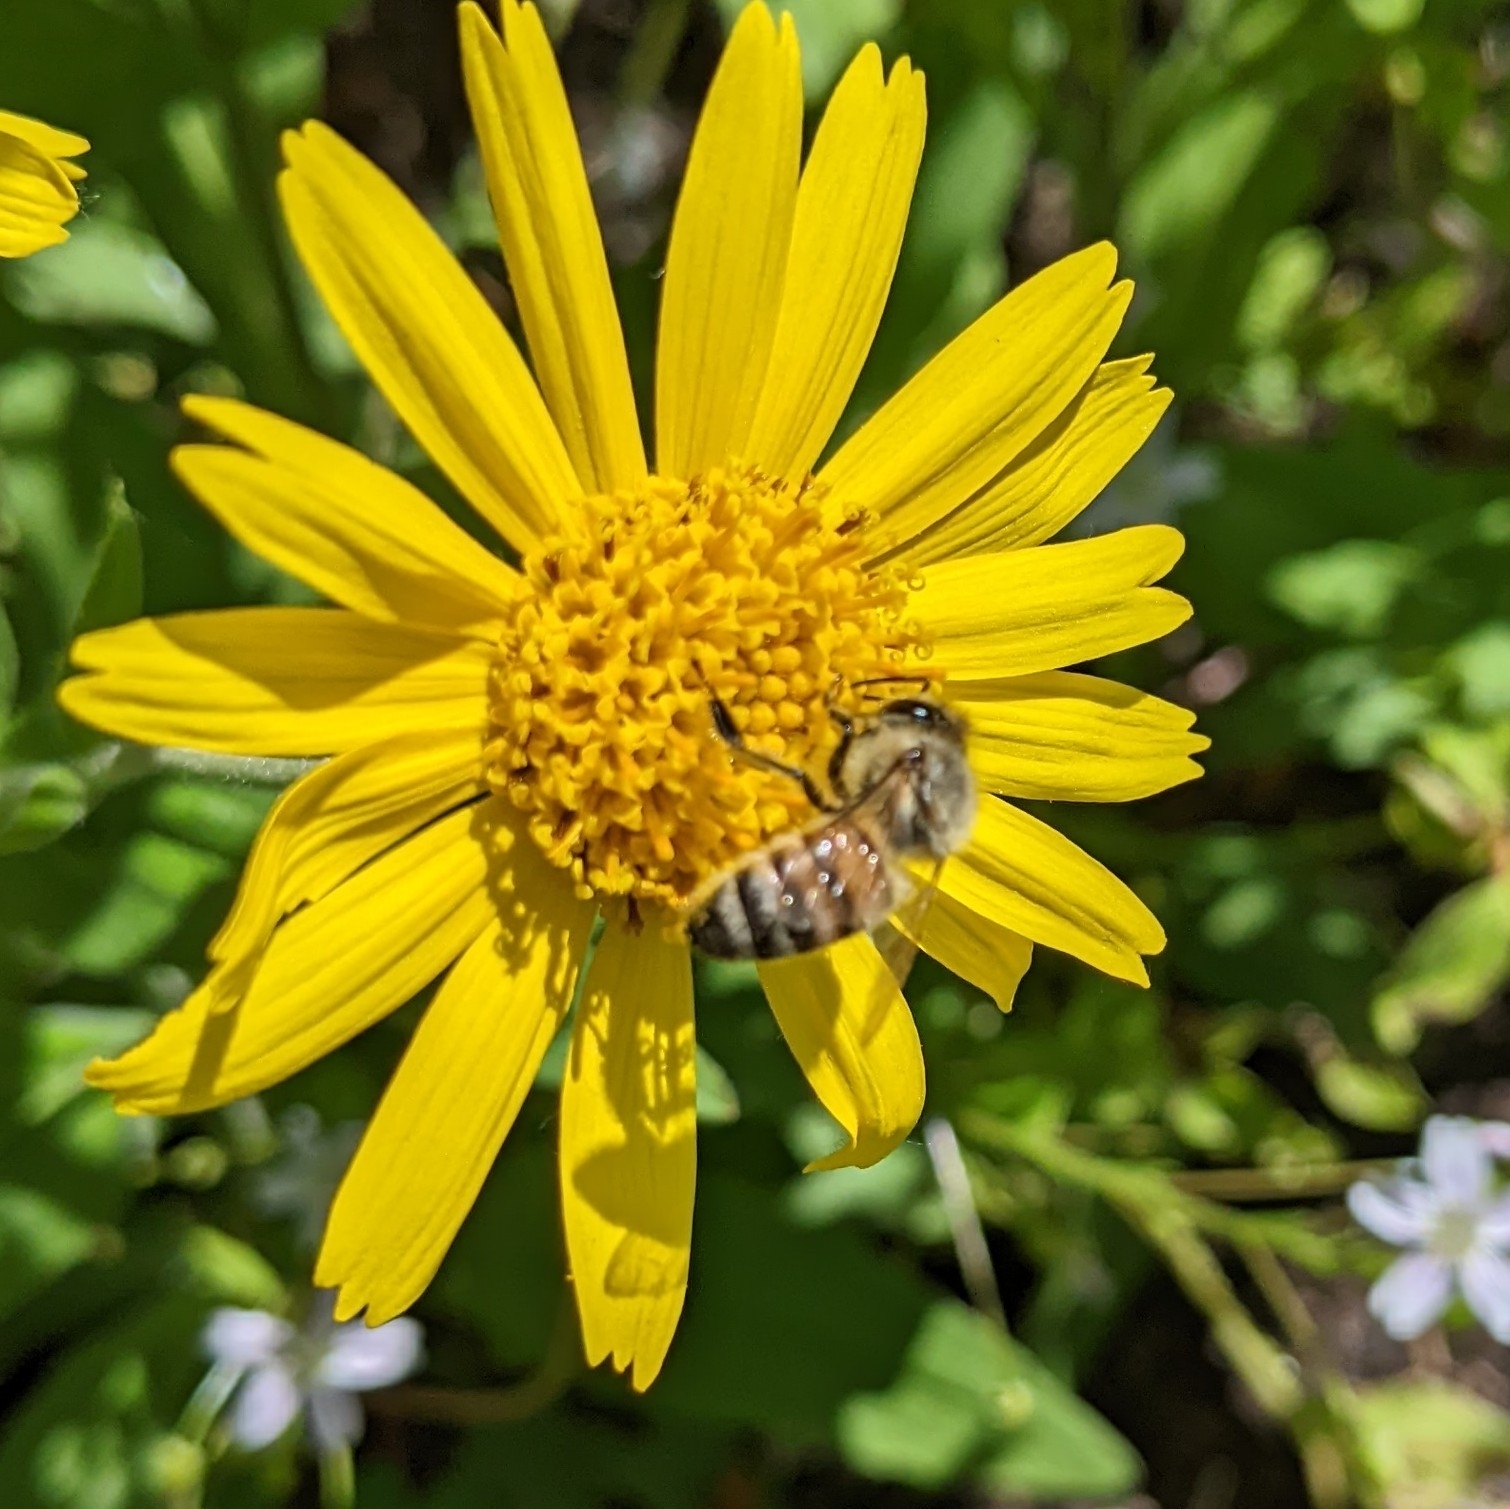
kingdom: Animalia
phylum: Arthropoda
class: Insecta
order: Hymenoptera
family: Apidae
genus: Apis
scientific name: Apis mellifera
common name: Honey bee
